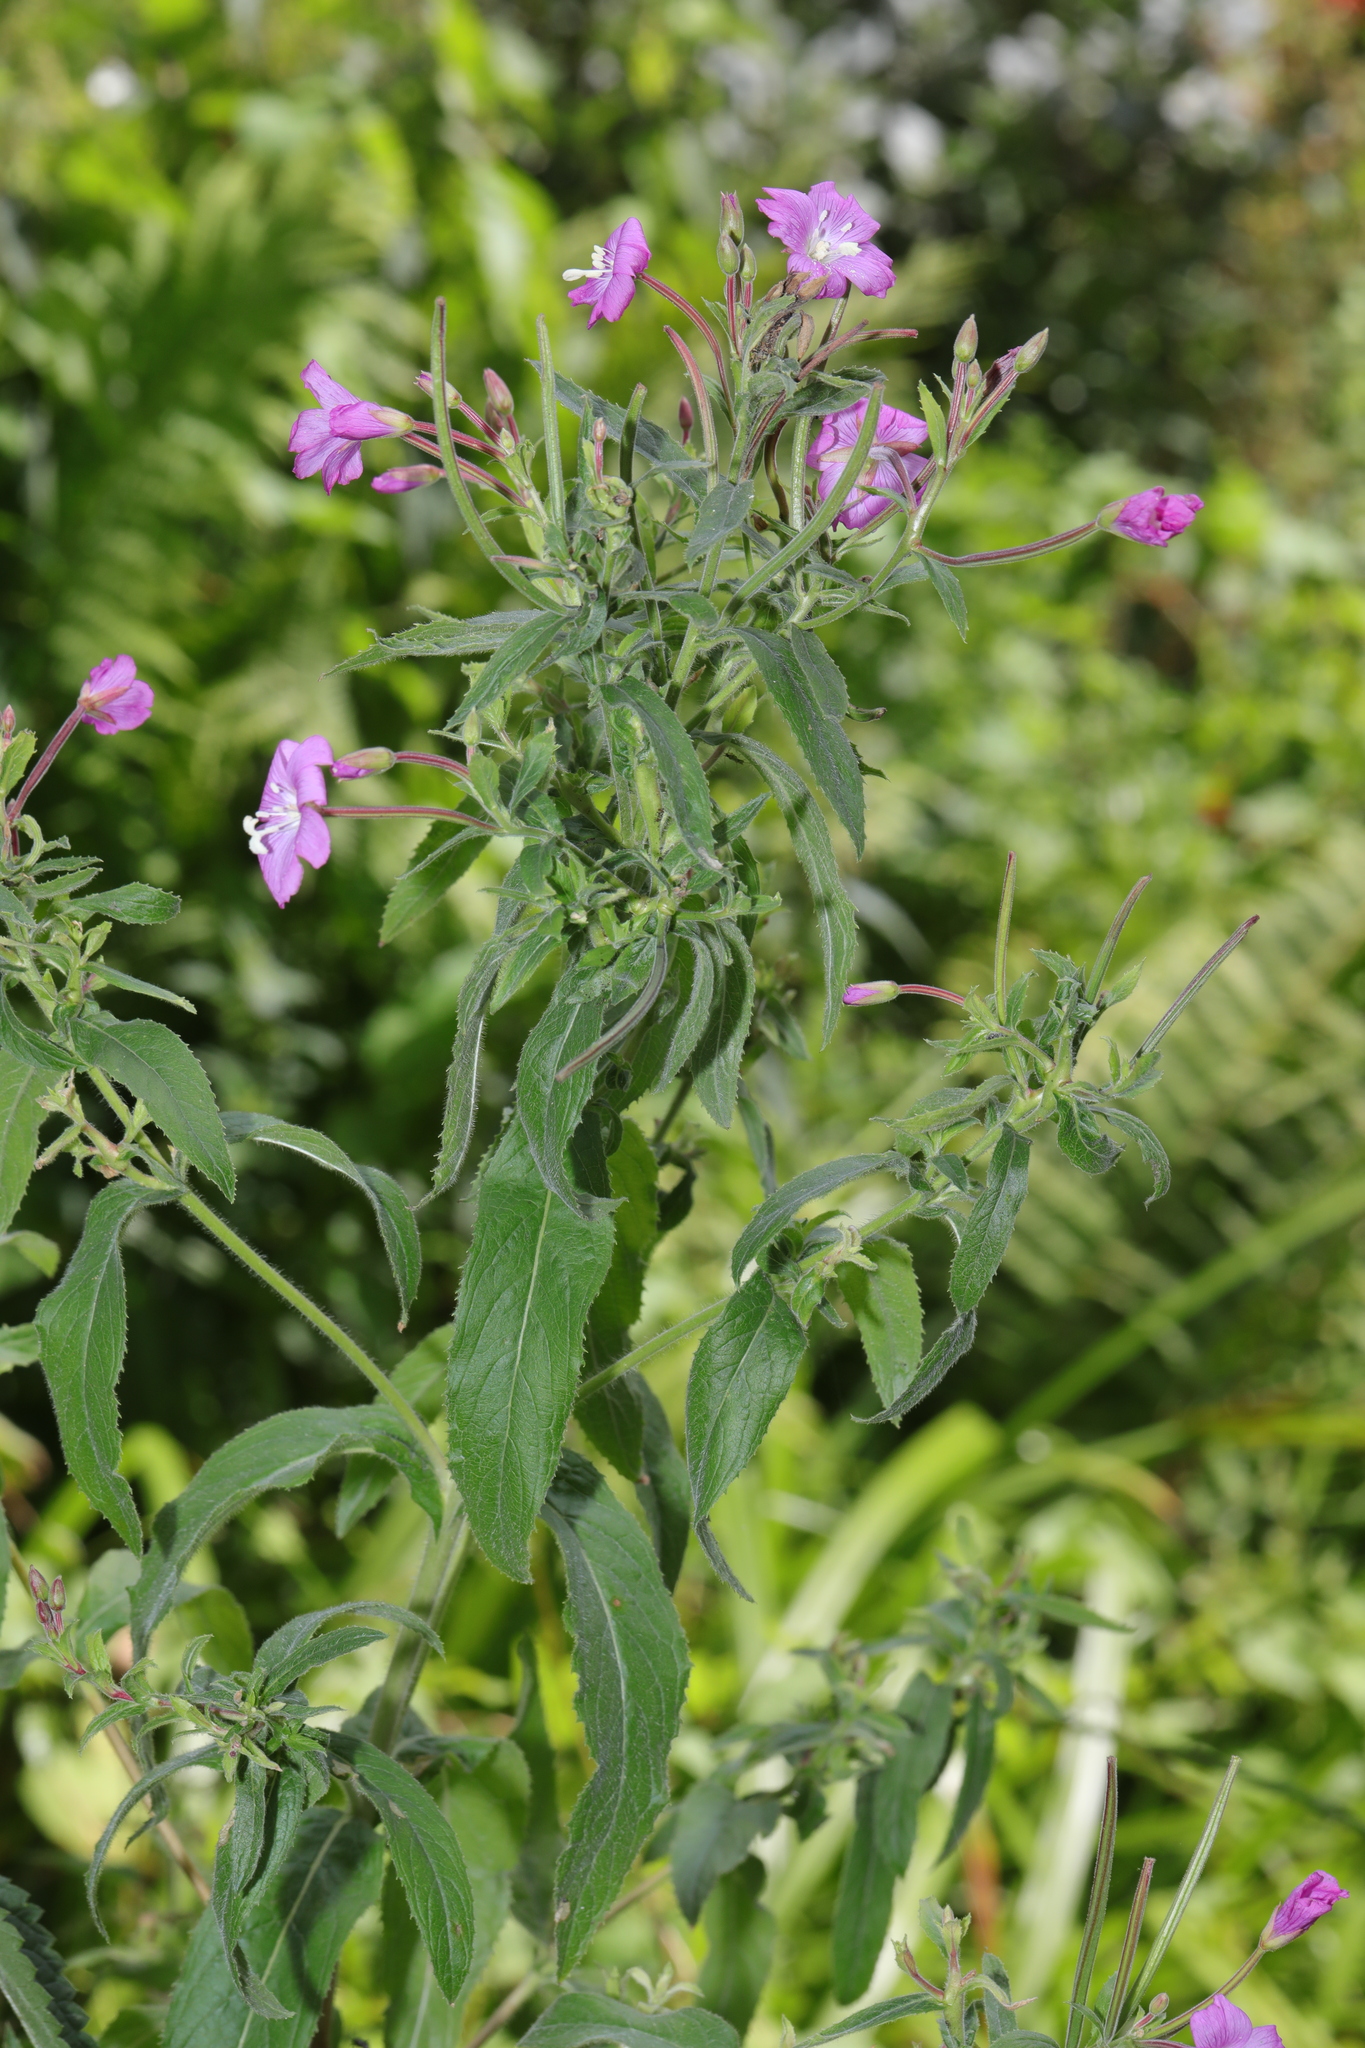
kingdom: Plantae
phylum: Tracheophyta
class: Magnoliopsida
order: Myrtales
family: Onagraceae
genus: Epilobium
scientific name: Epilobium hirsutum
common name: Great willowherb
